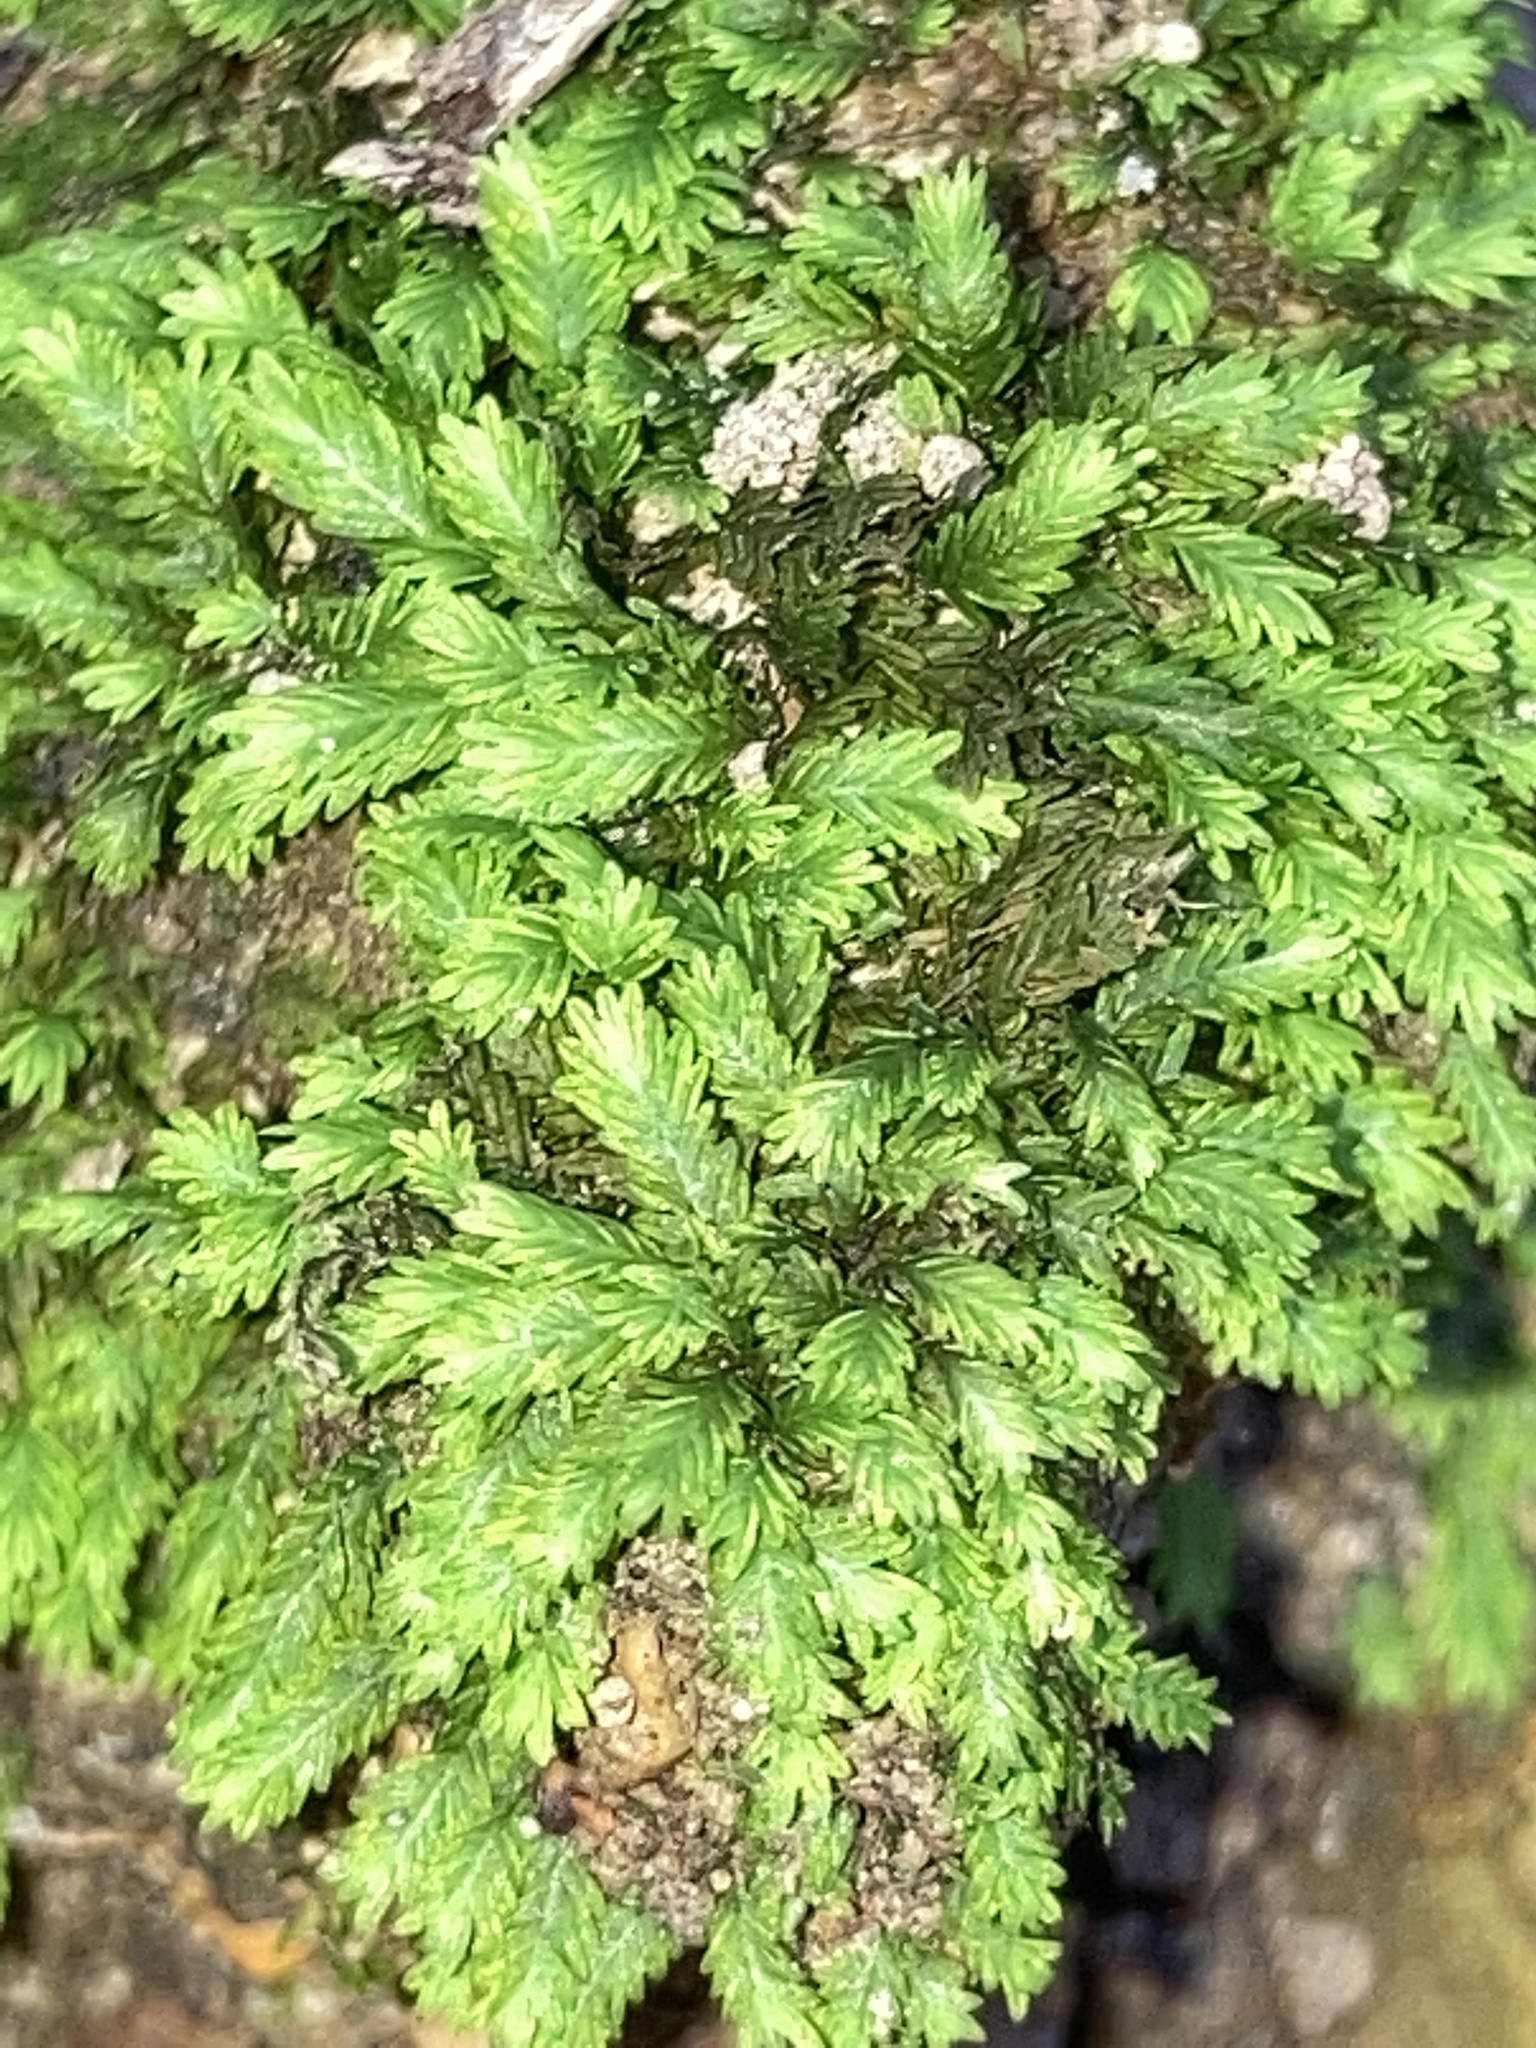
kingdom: Plantae
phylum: Bryophyta
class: Bryopsida
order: Dicranales
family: Fissidentaceae
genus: Fissidens
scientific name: Fissidens adianthoides
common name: Maidenhair pocket moss
